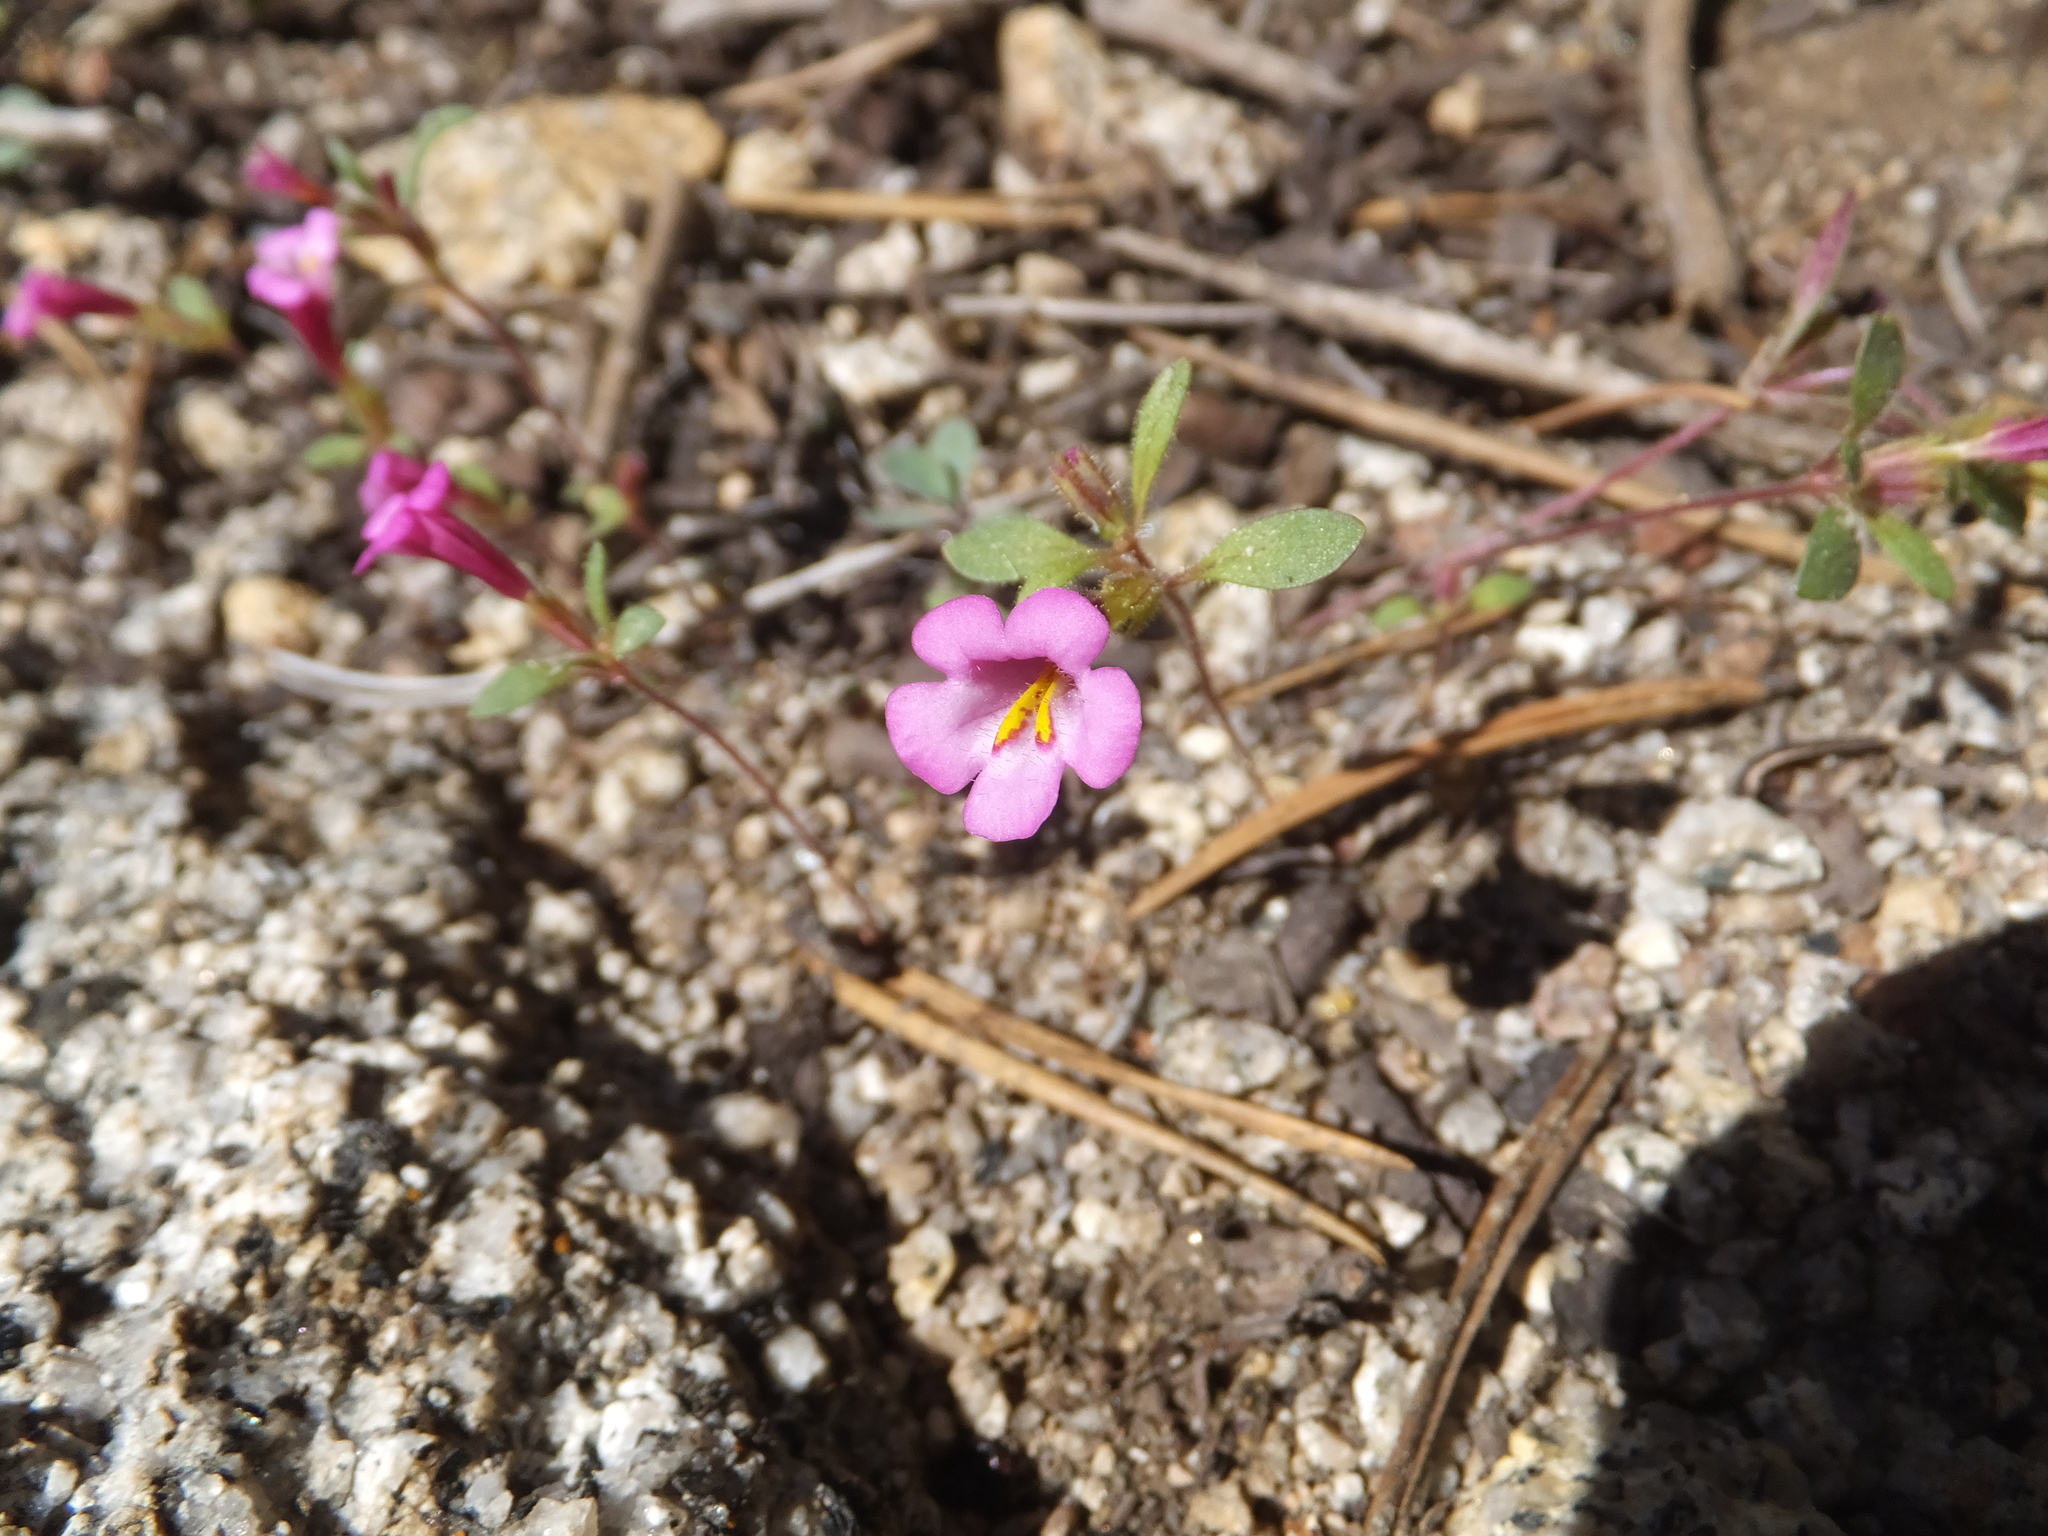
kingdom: Plantae
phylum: Tracheophyta
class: Magnoliopsida
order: Lamiales
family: Phrymaceae
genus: Diplacus
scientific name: Diplacus torreyi
